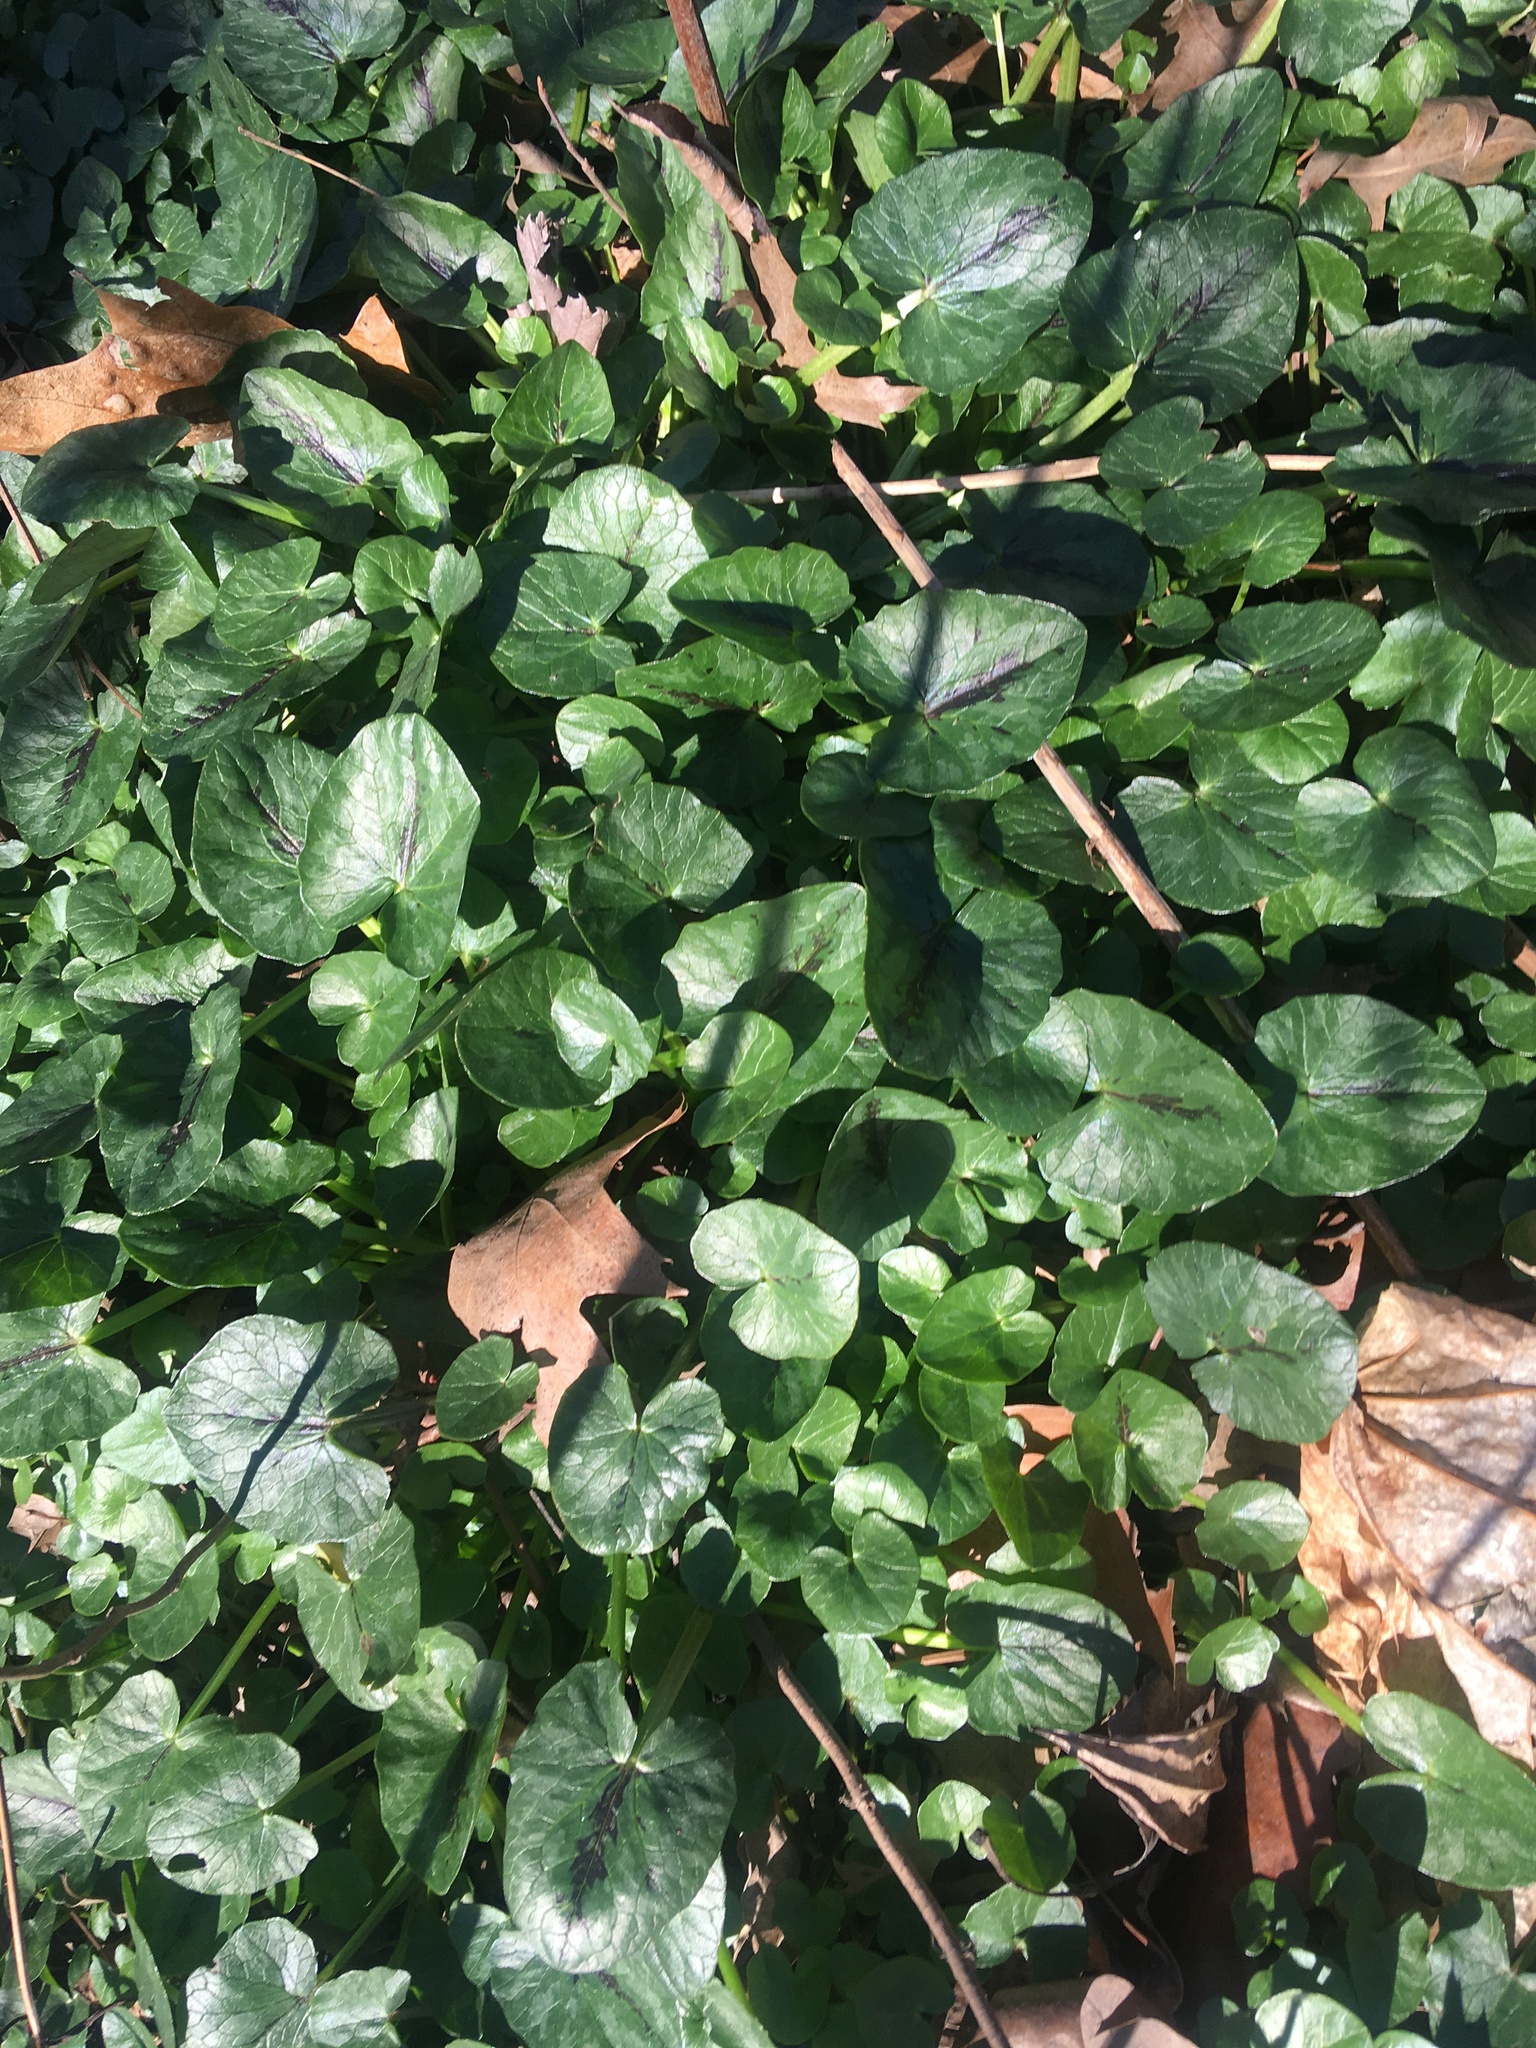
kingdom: Plantae
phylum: Tracheophyta
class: Magnoliopsida
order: Ranunculales
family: Ranunculaceae
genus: Ficaria
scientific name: Ficaria verna
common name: Lesser celandine
